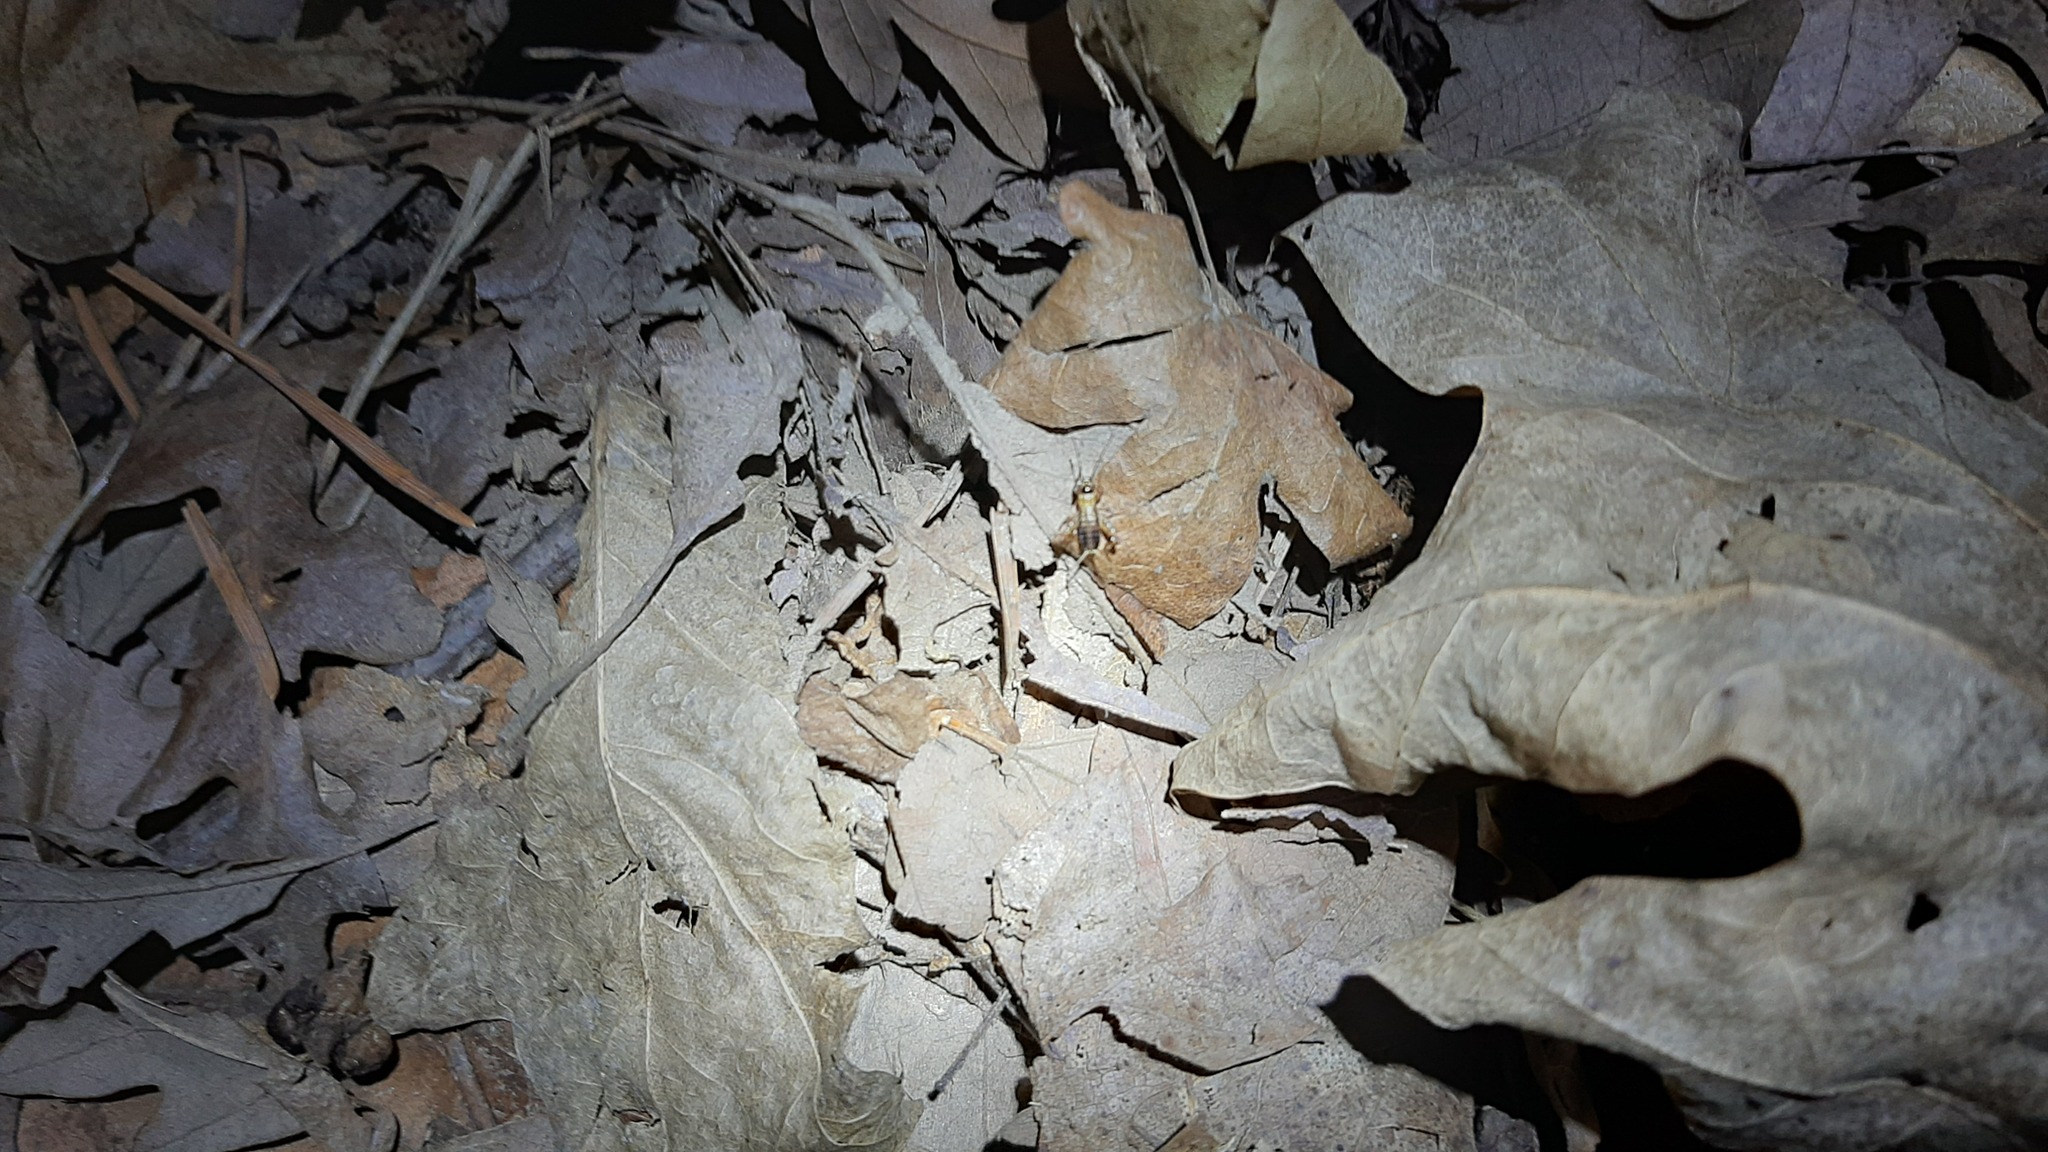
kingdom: Animalia
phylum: Arthropoda
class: Insecta
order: Orthoptera
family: Trigonidiidae
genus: Nemobius
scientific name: Nemobius sylvestris
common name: Wood-cricket
